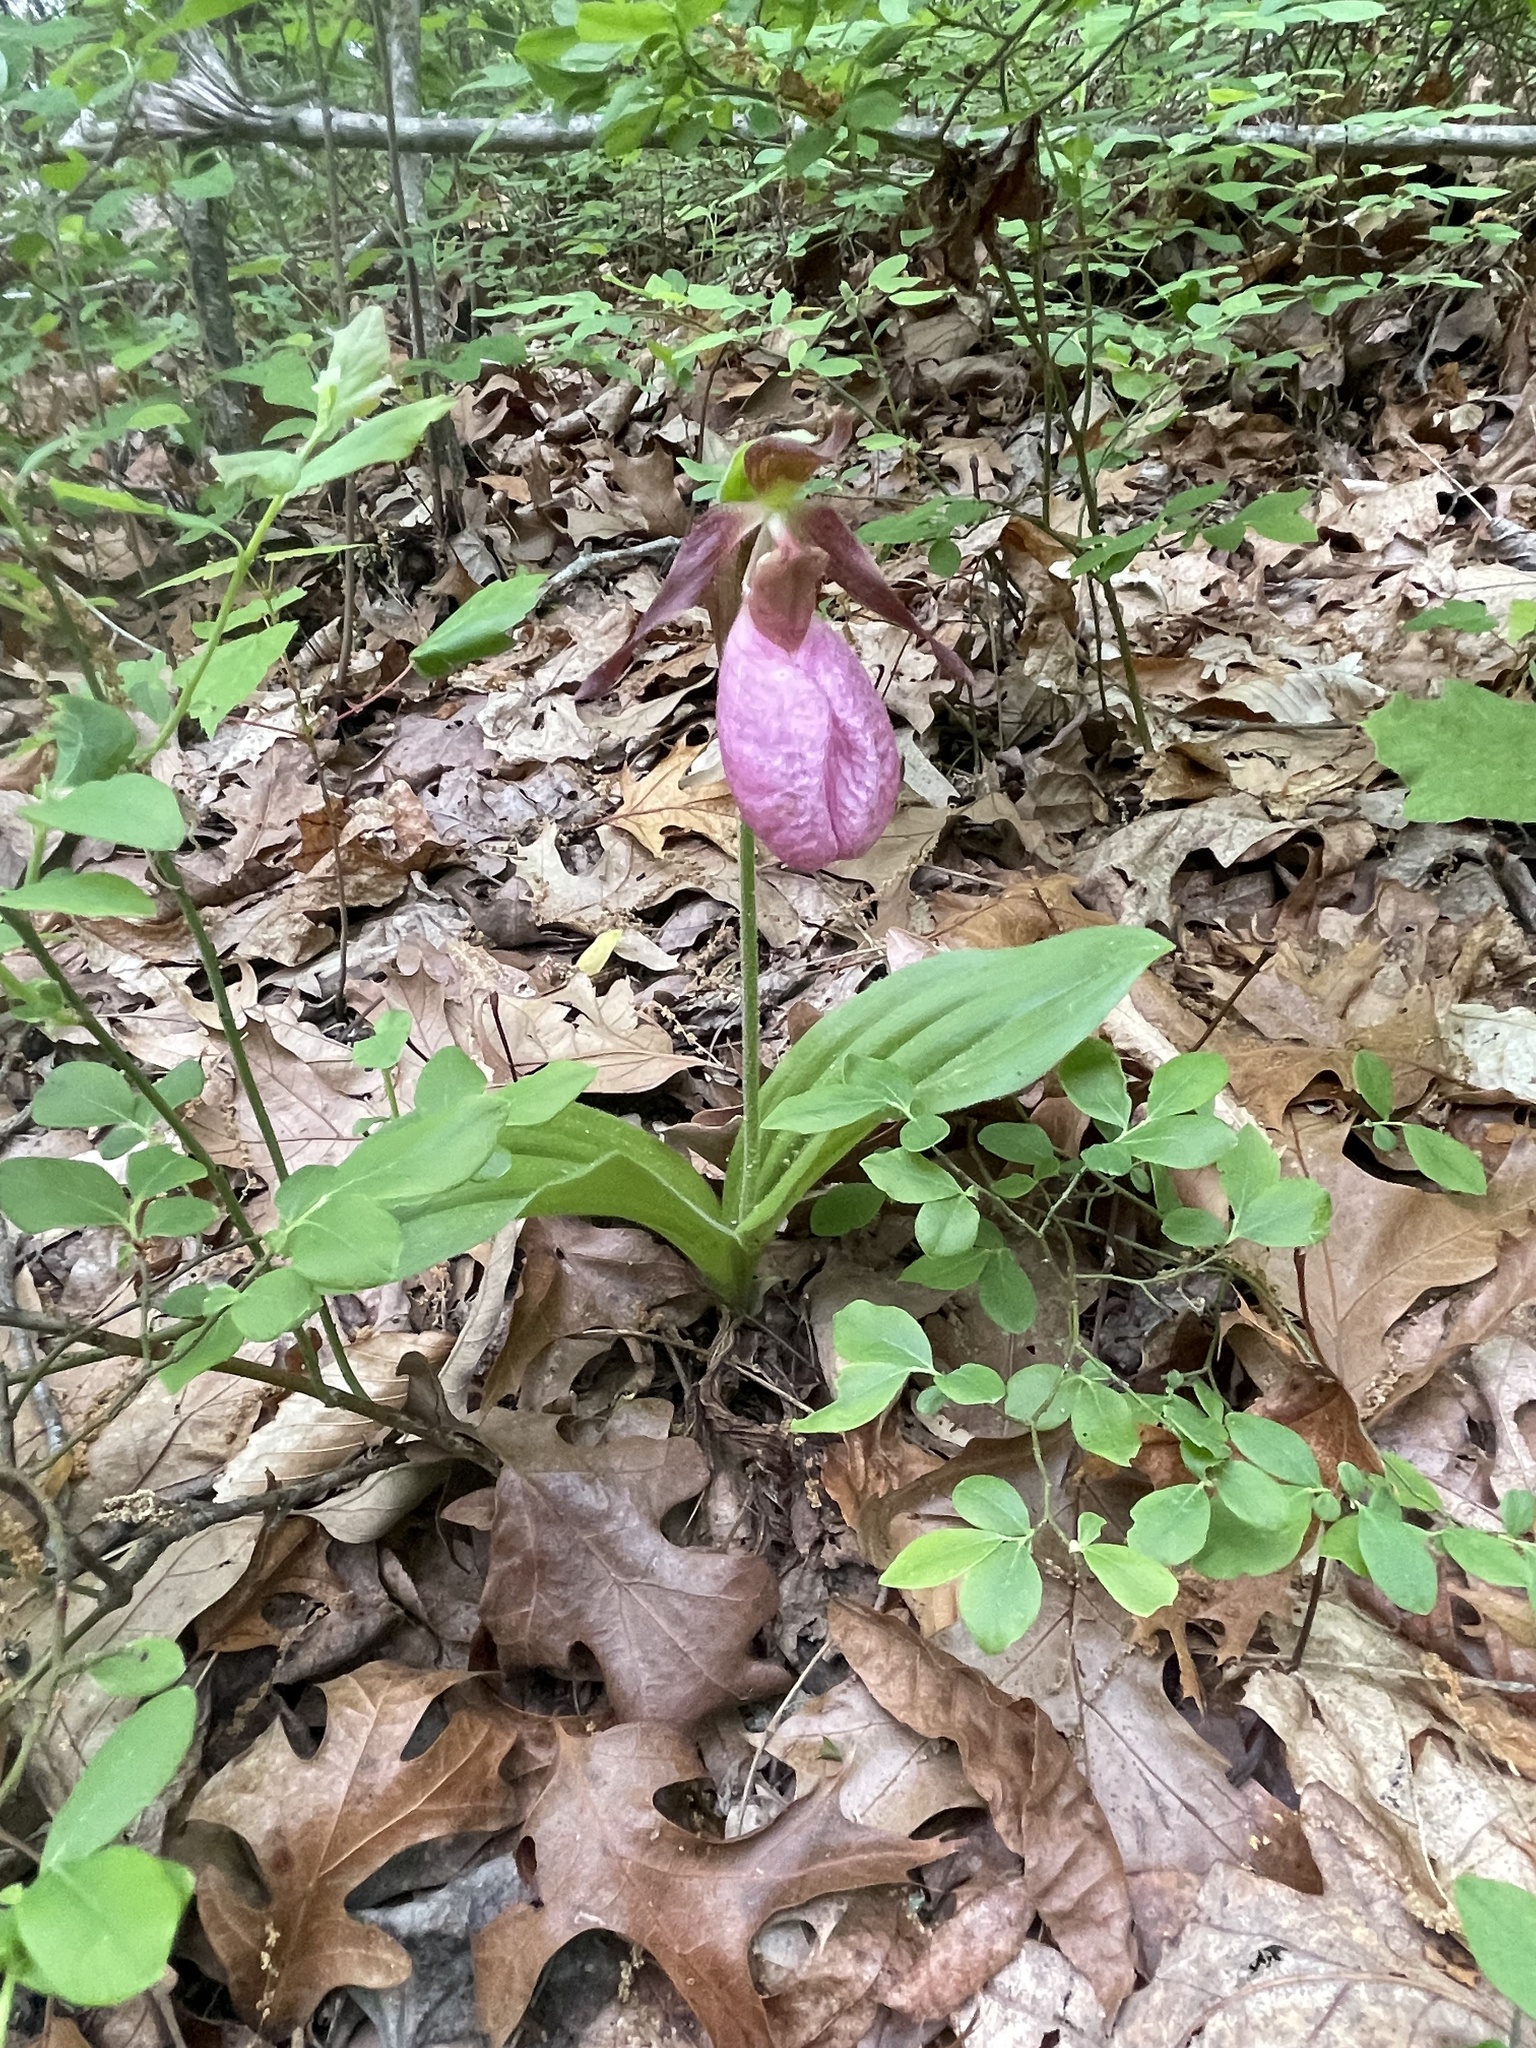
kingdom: Plantae
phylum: Tracheophyta
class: Liliopsida
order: Asparagales
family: Orchidaceae
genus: Cypripedium
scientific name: Cypripedium acaule
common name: Pink lady's-slipper
